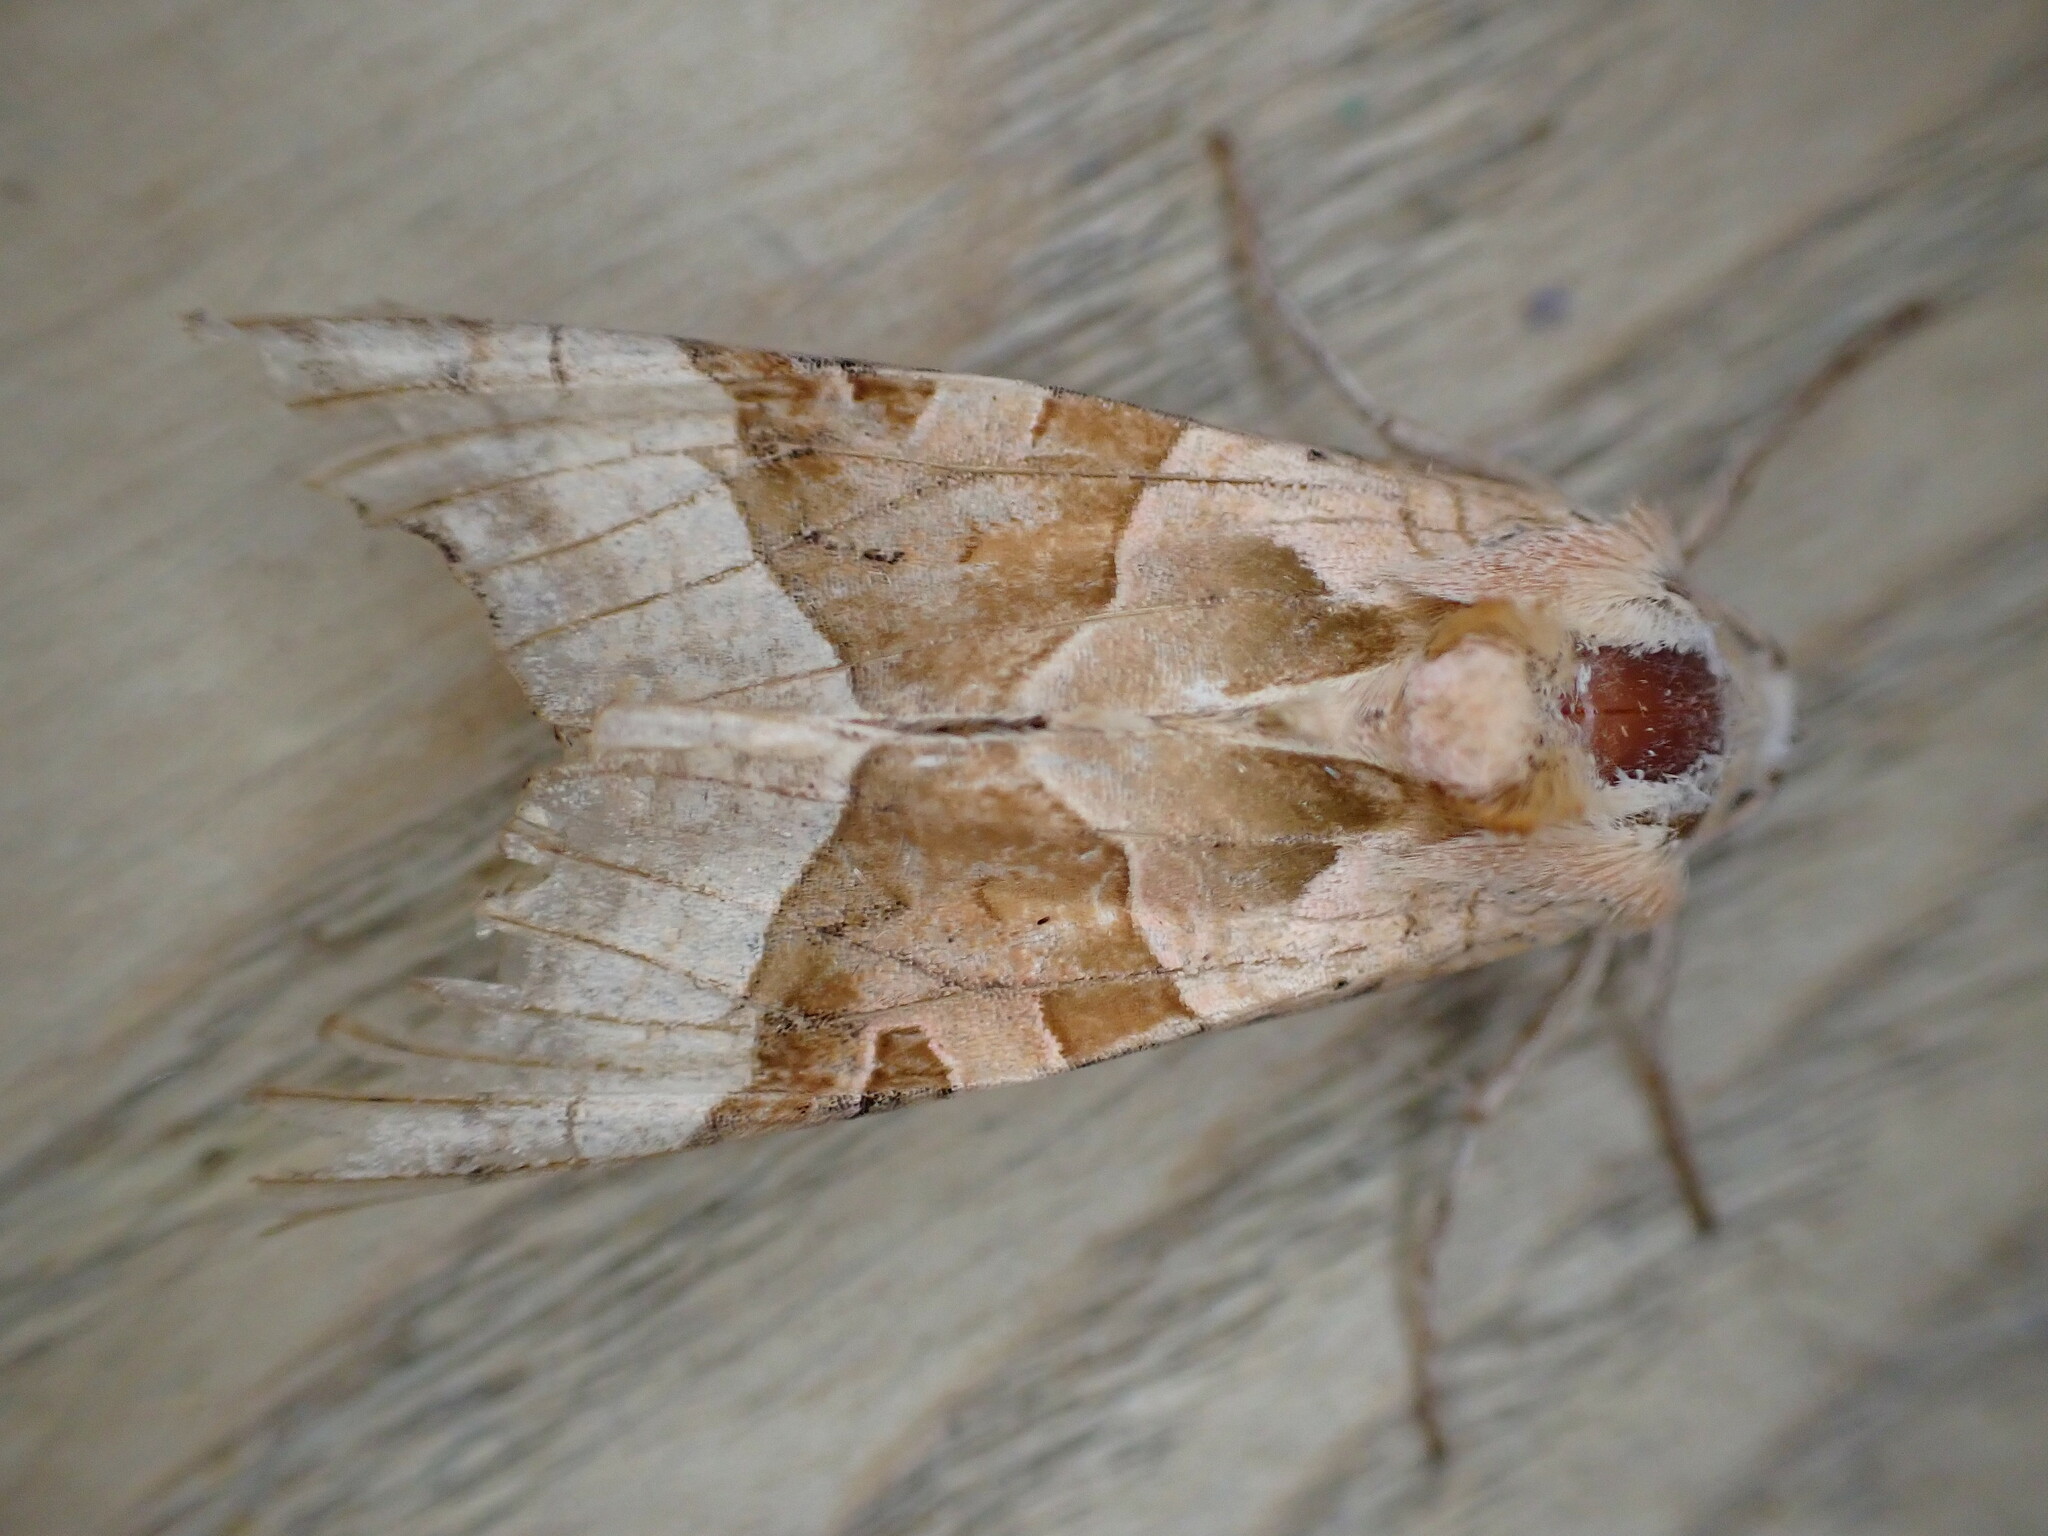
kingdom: Animalia
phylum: Arthropoda
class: Insecta
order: Lepidoptera
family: Noctuidae
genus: Phlogophora
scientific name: Phlogophora meticulosa
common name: Angle shades
